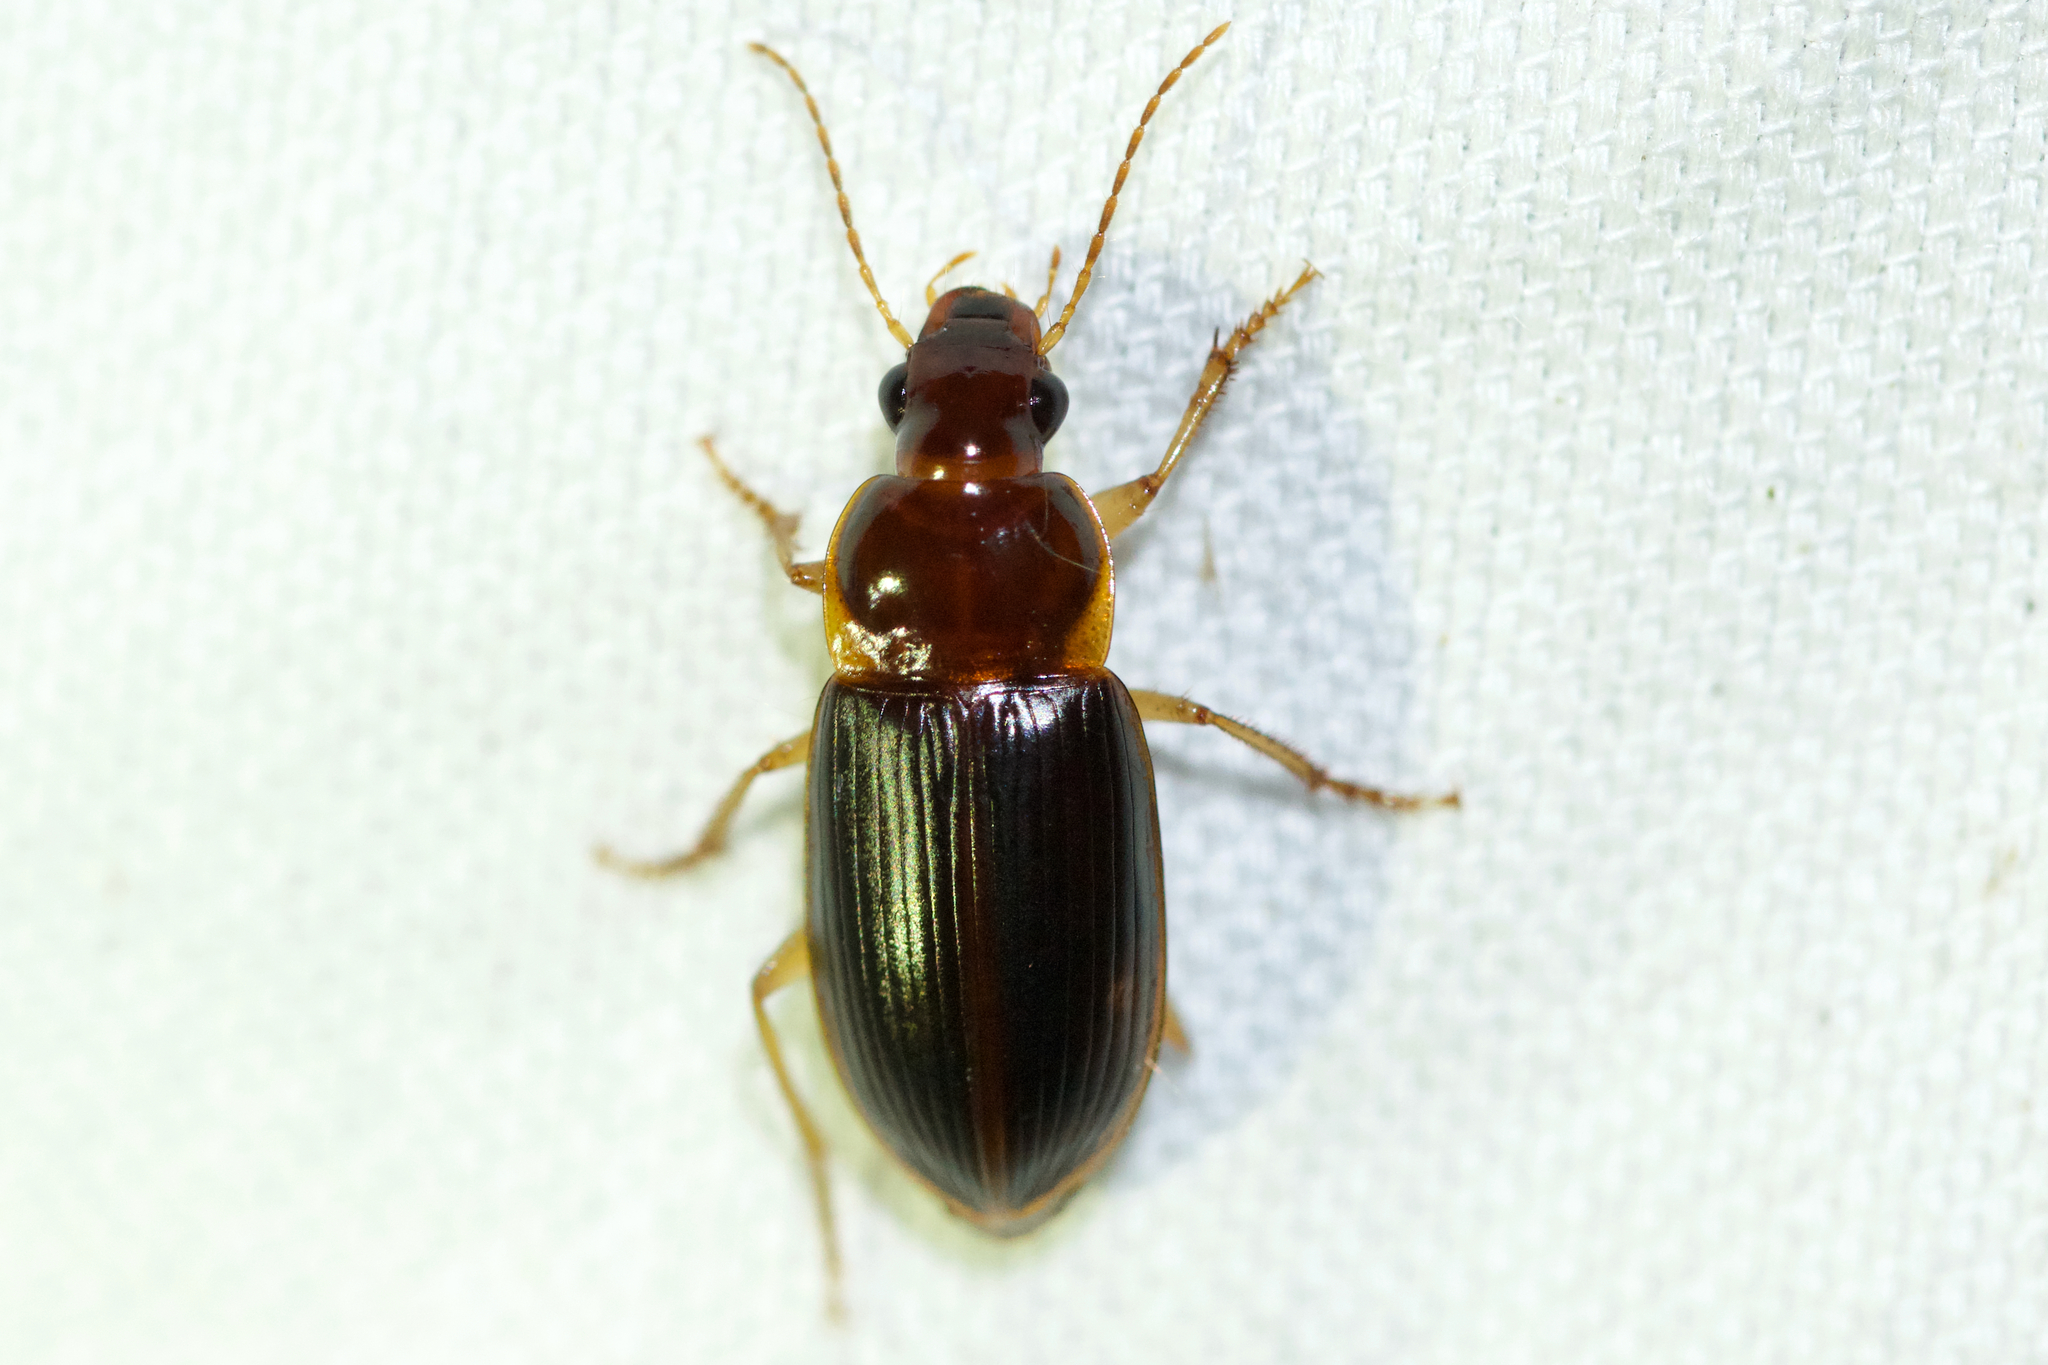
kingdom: Animalia
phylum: Arthropoda
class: Insecta
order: Coleoptera
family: Carabidae
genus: Notiobia
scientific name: Notiobia terminata
